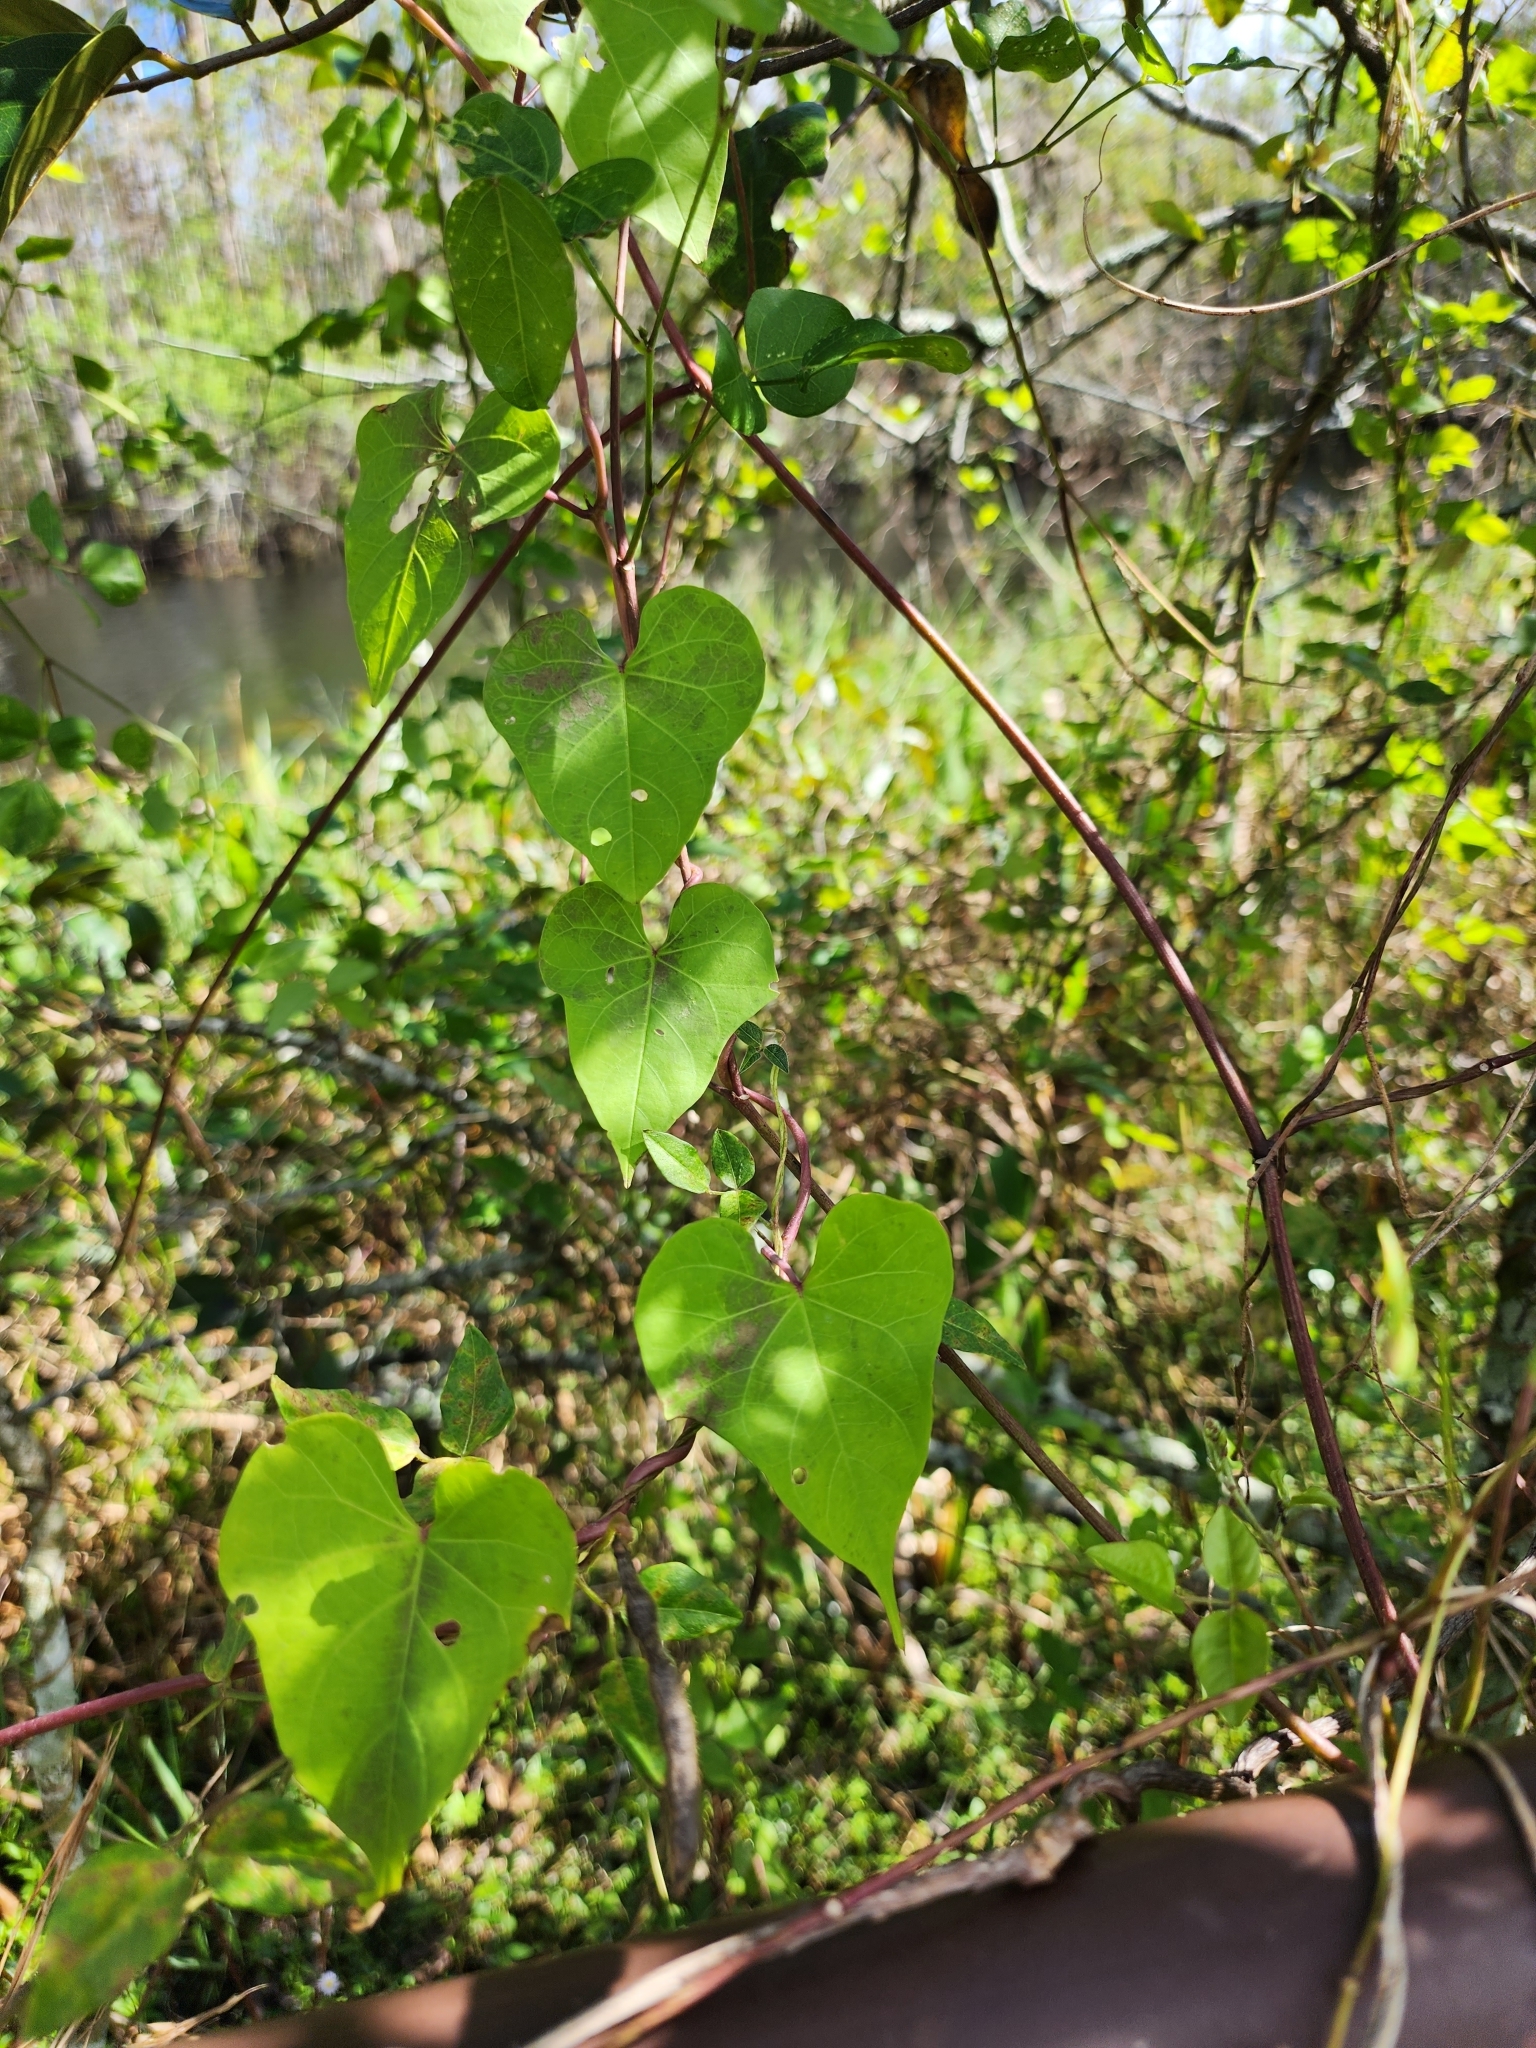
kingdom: Plantae
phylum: Tracheophyta
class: Magnoliopsida
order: Solanales
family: Convolvulaceae
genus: Ipomoea
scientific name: Ipomoea
